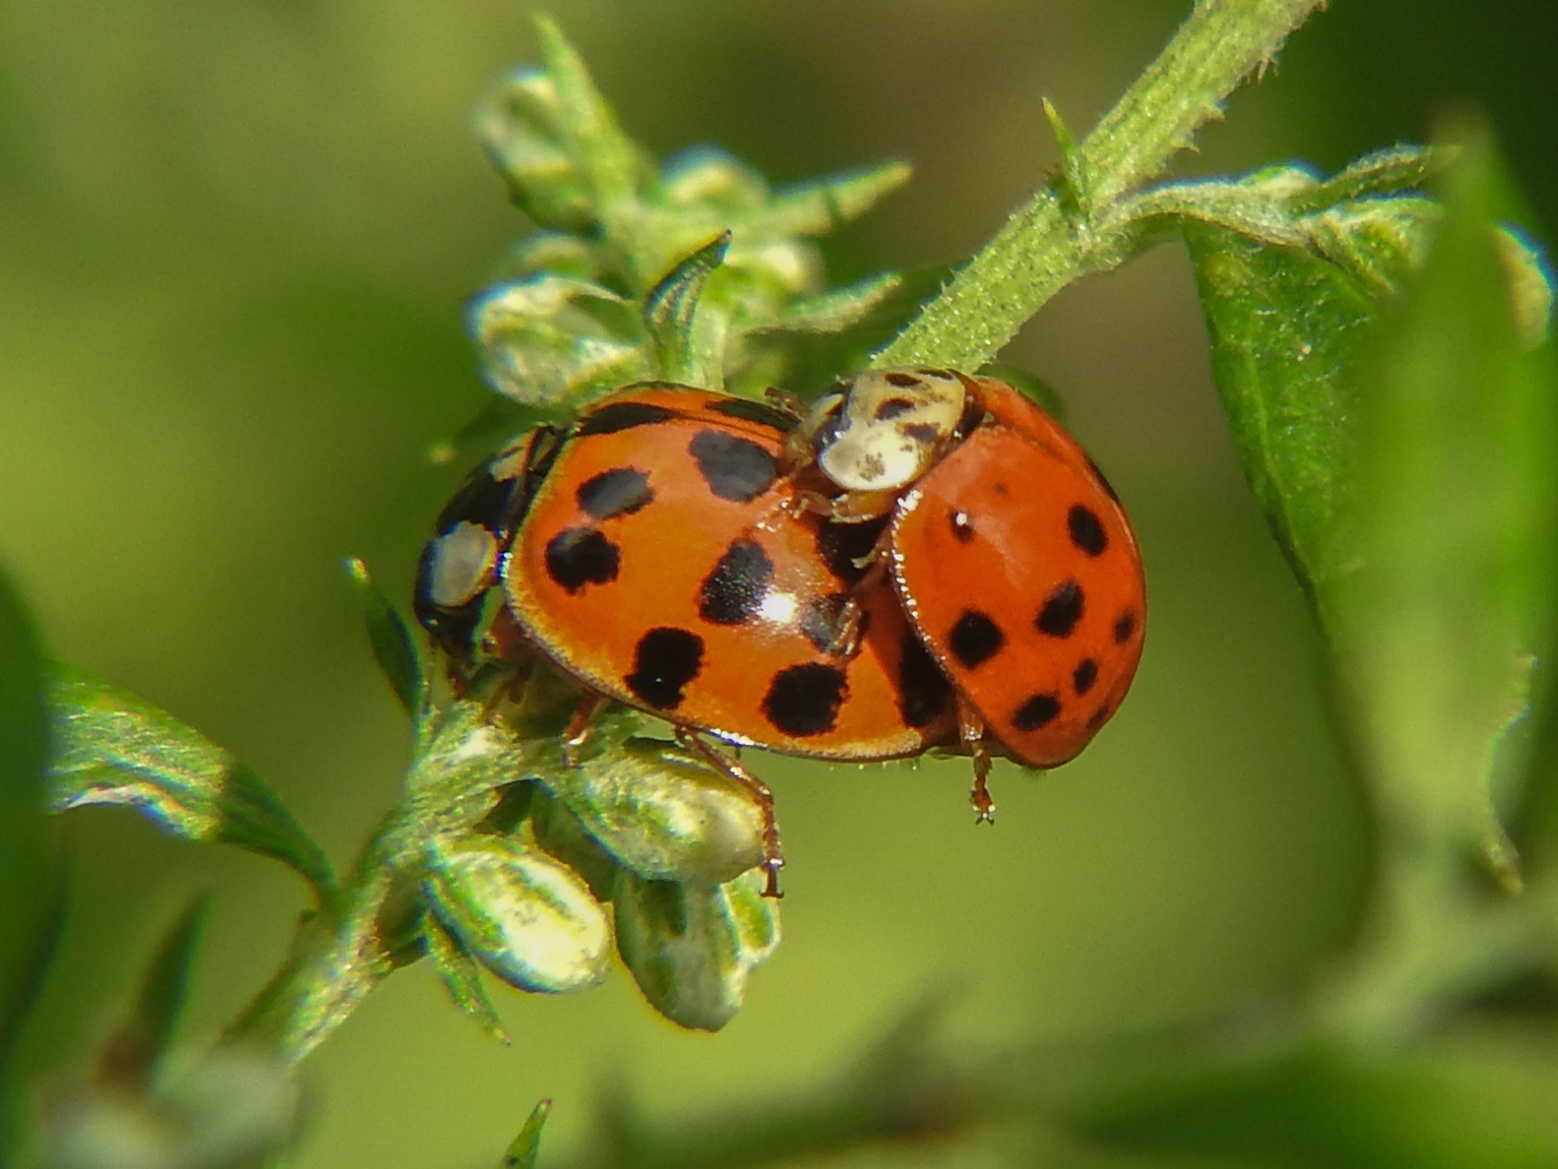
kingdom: Animalia
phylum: Arthropoda
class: Insecta
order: Coleoptera
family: Coccinellidae
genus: Harmonia
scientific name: Harmonia axyridis
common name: Harlequin ladybird
